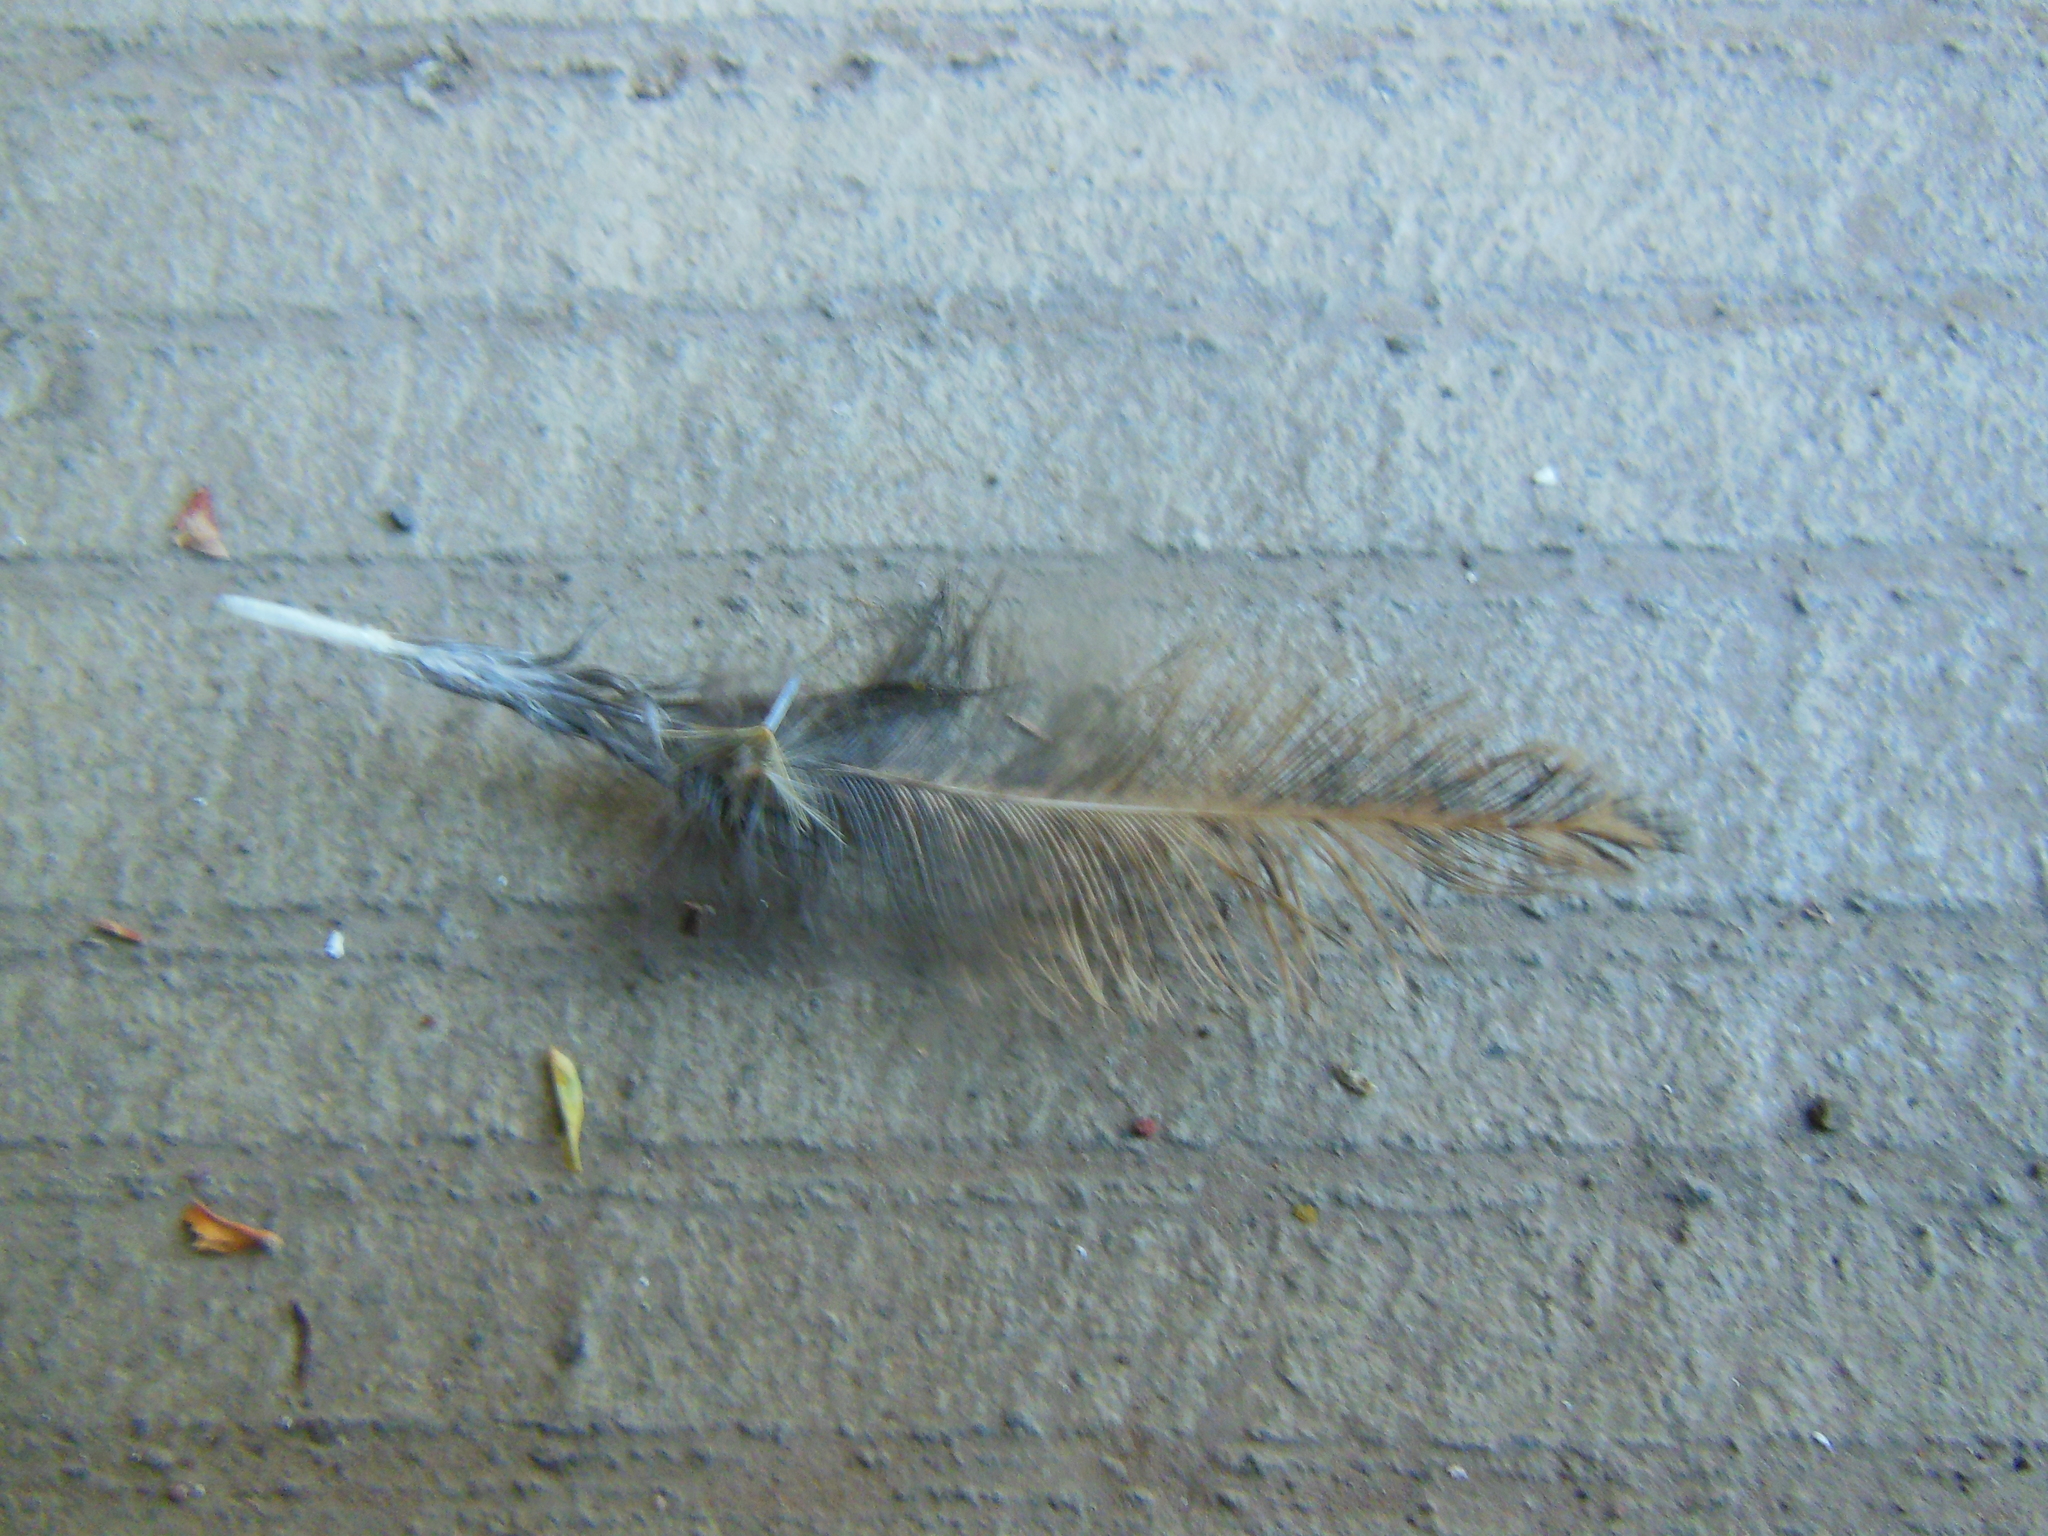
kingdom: Animalia
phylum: Chordata
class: Aves
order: Galliformes
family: Phasianidae
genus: Gallus
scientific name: Gallus gallus
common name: Red junglefowl
